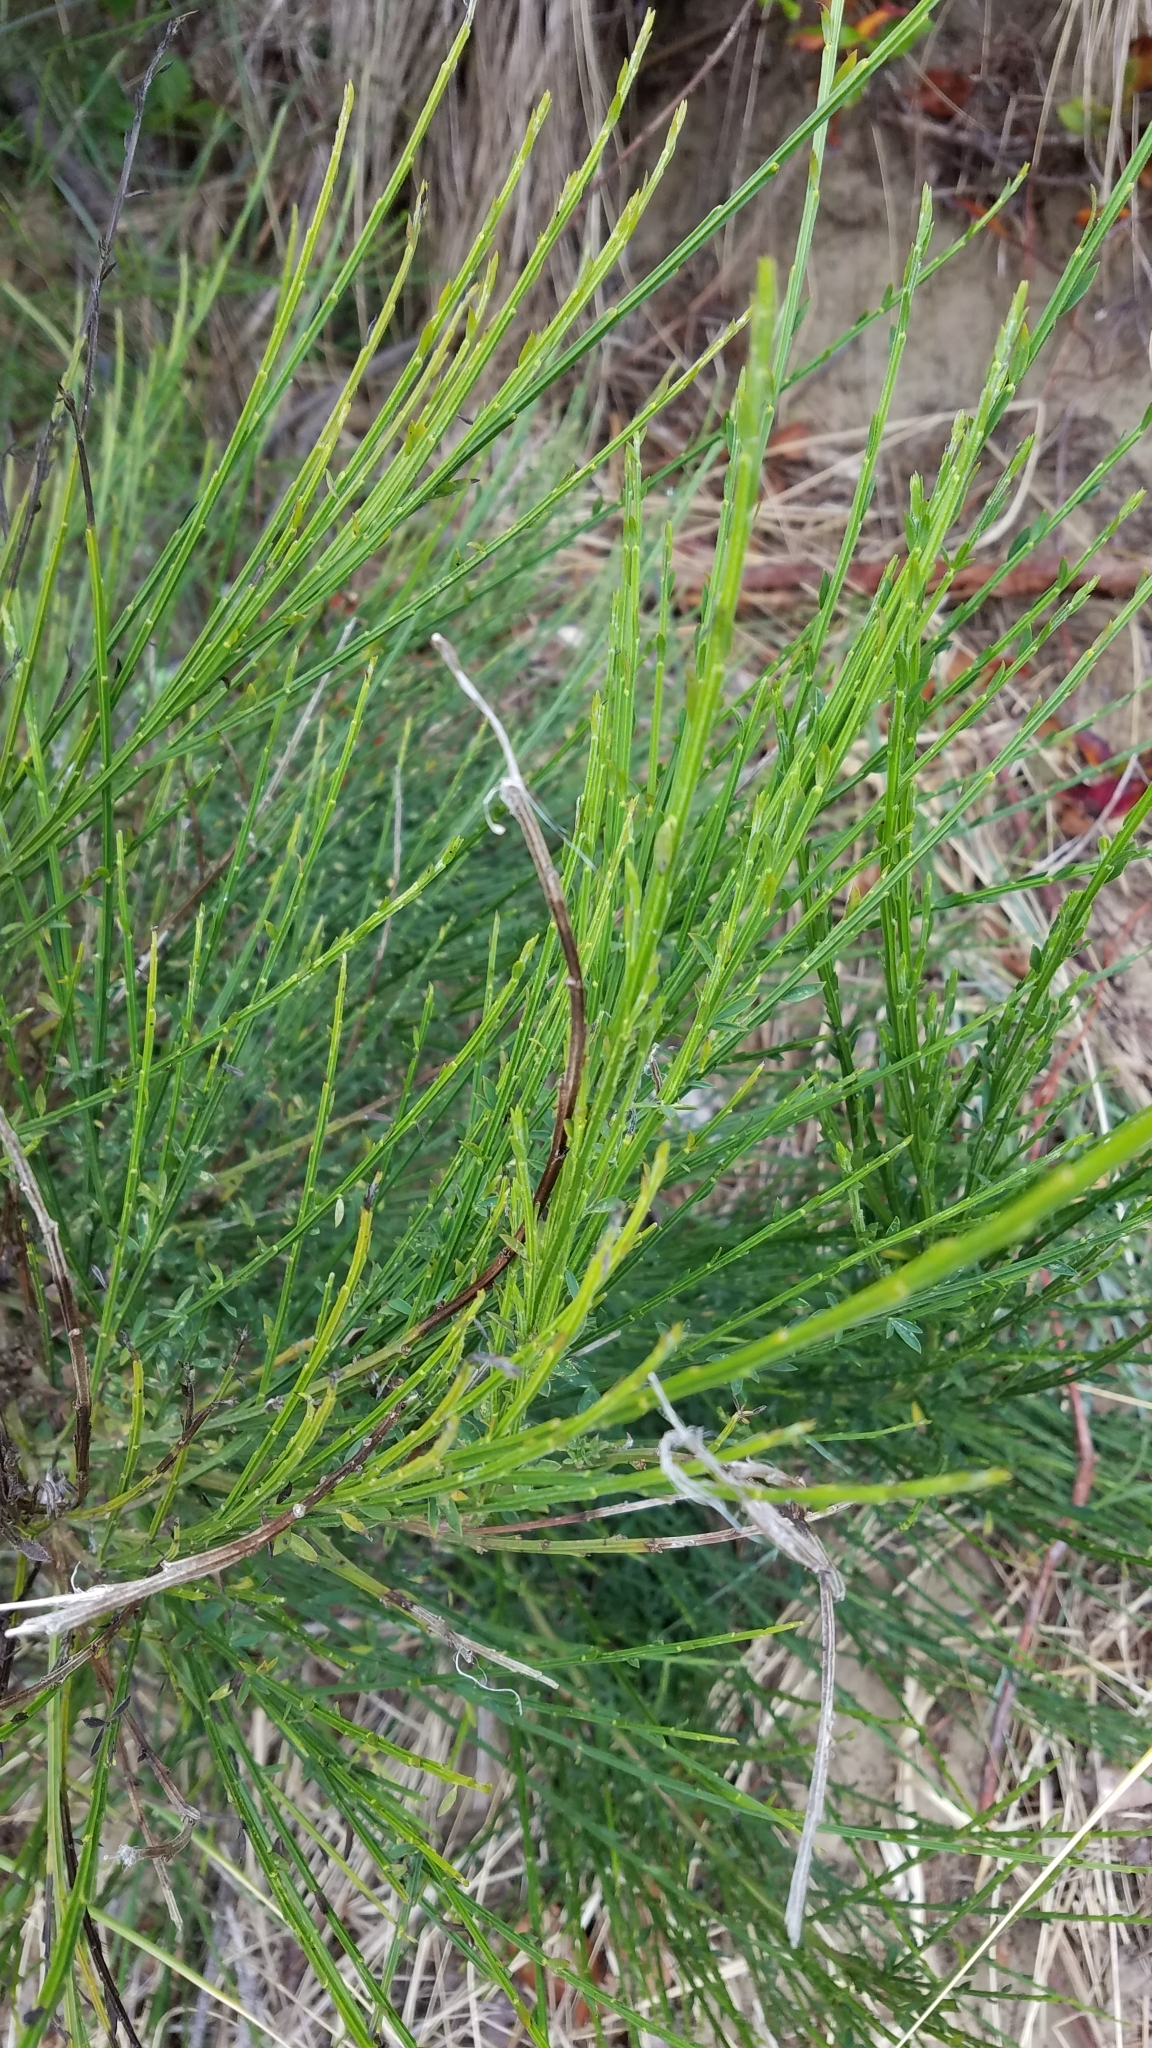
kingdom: Plantae
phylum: Tracheophyta
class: Magnoliopsida
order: Fabales
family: Fabaceae
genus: Cytisus
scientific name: Cytisus scoparius
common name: Scotch broom
